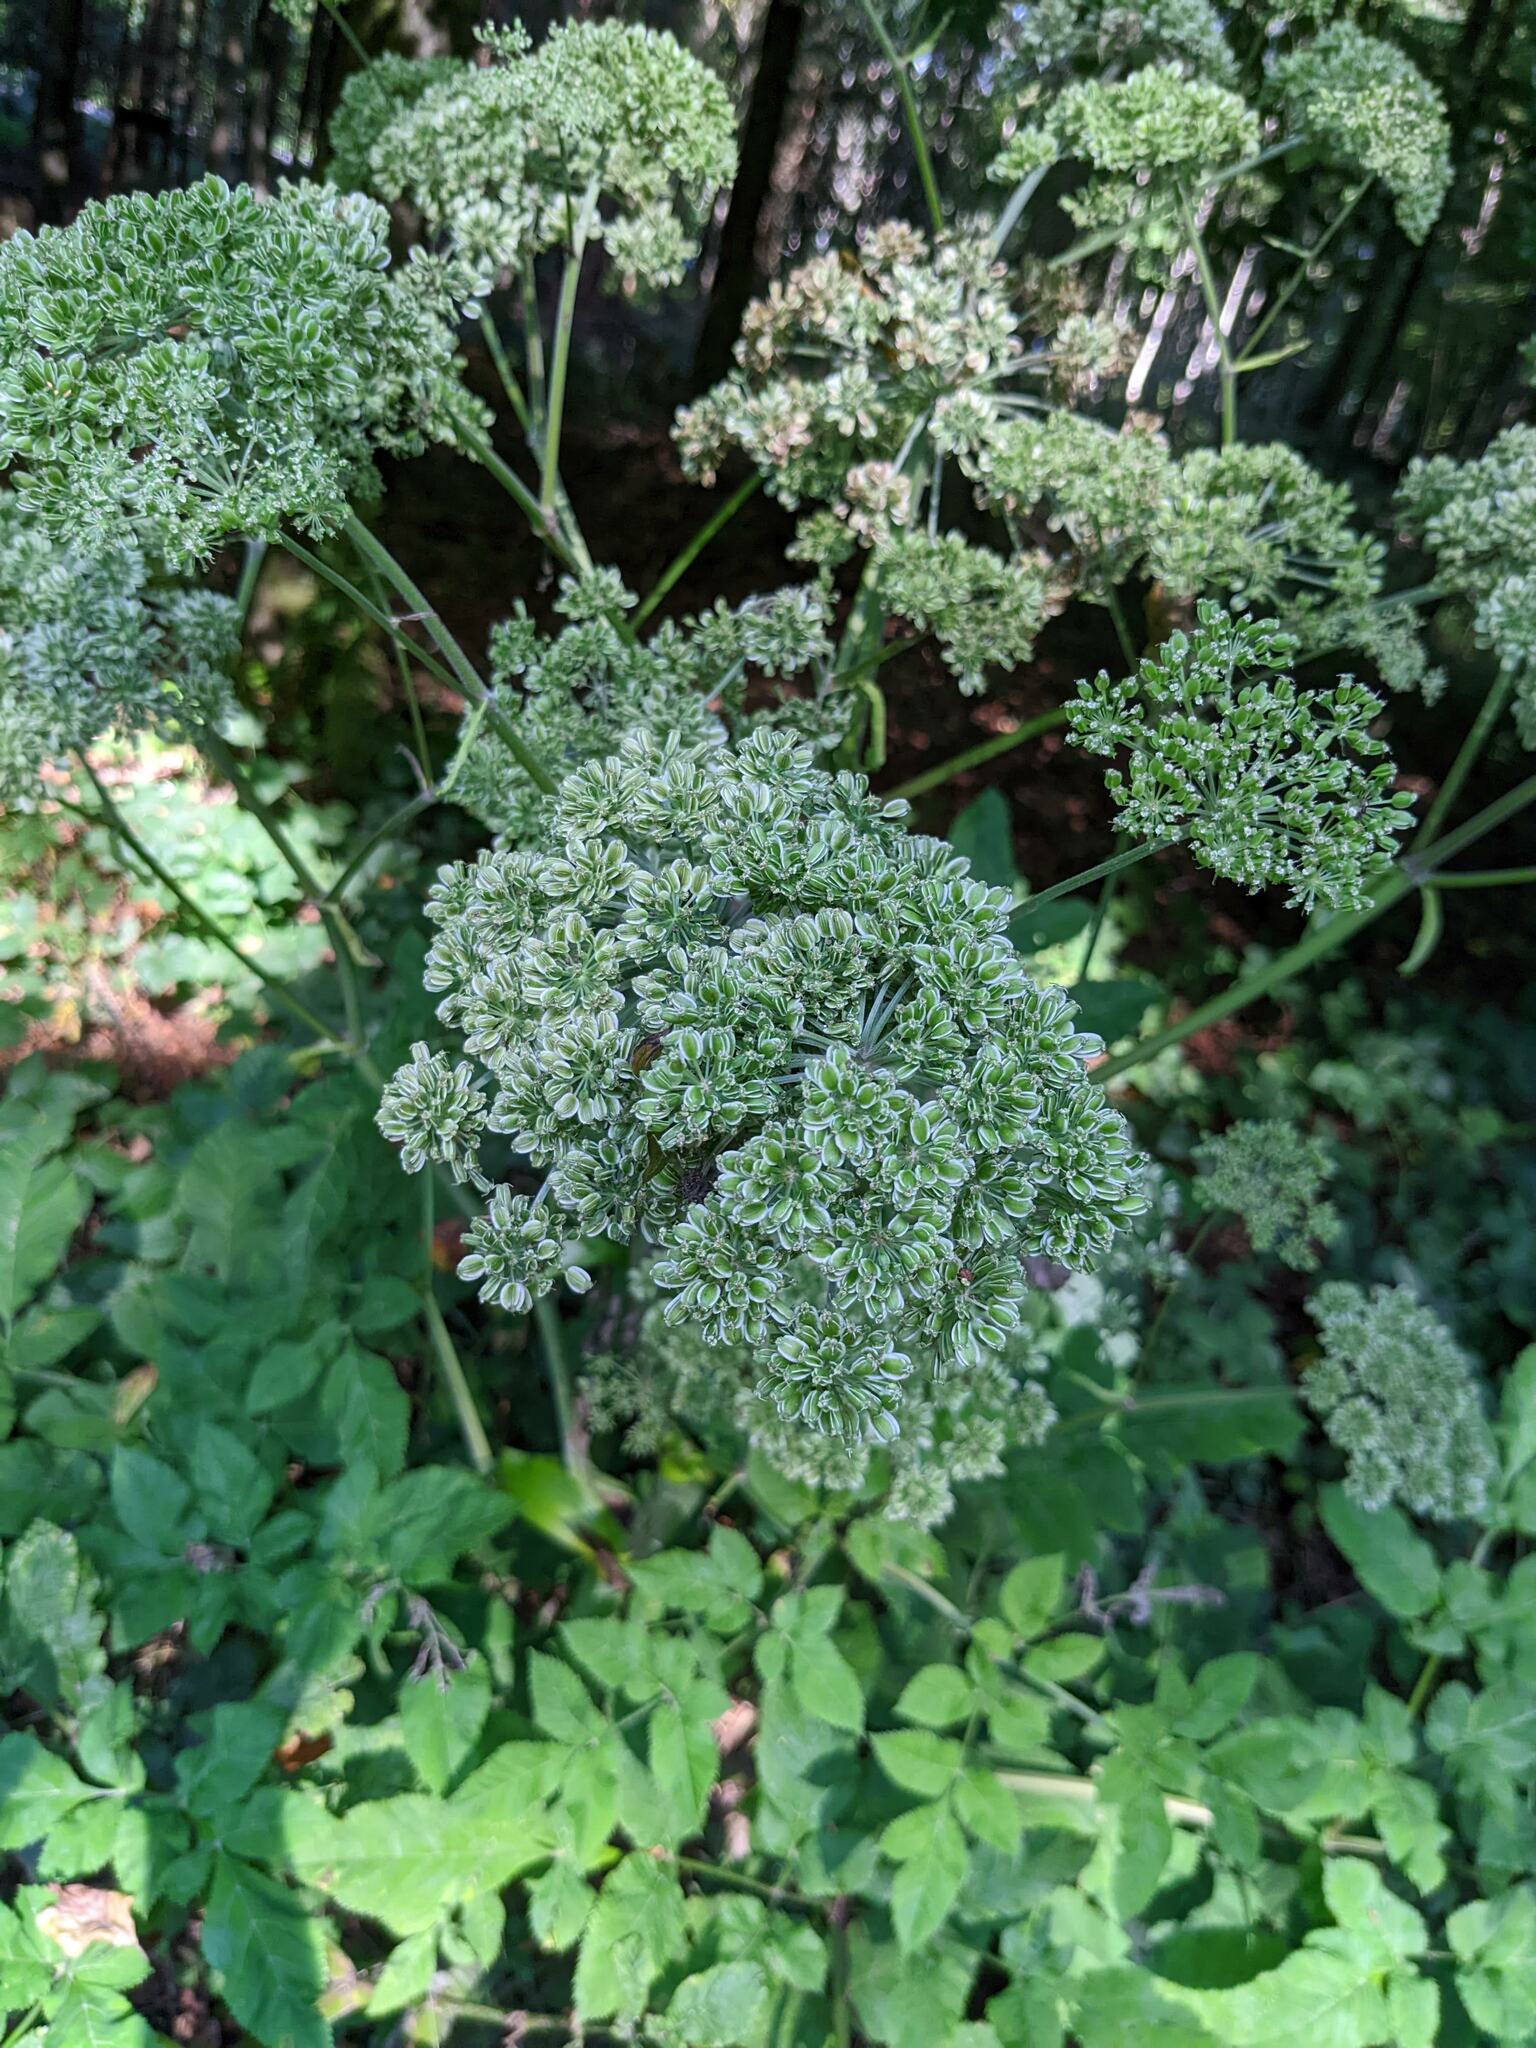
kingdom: Plantae
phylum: Tracheophyta
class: Magnoliopsida
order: Apiales
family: Apiaceae
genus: Angelica
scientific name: Angelica sylvestris
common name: Wild angelica
